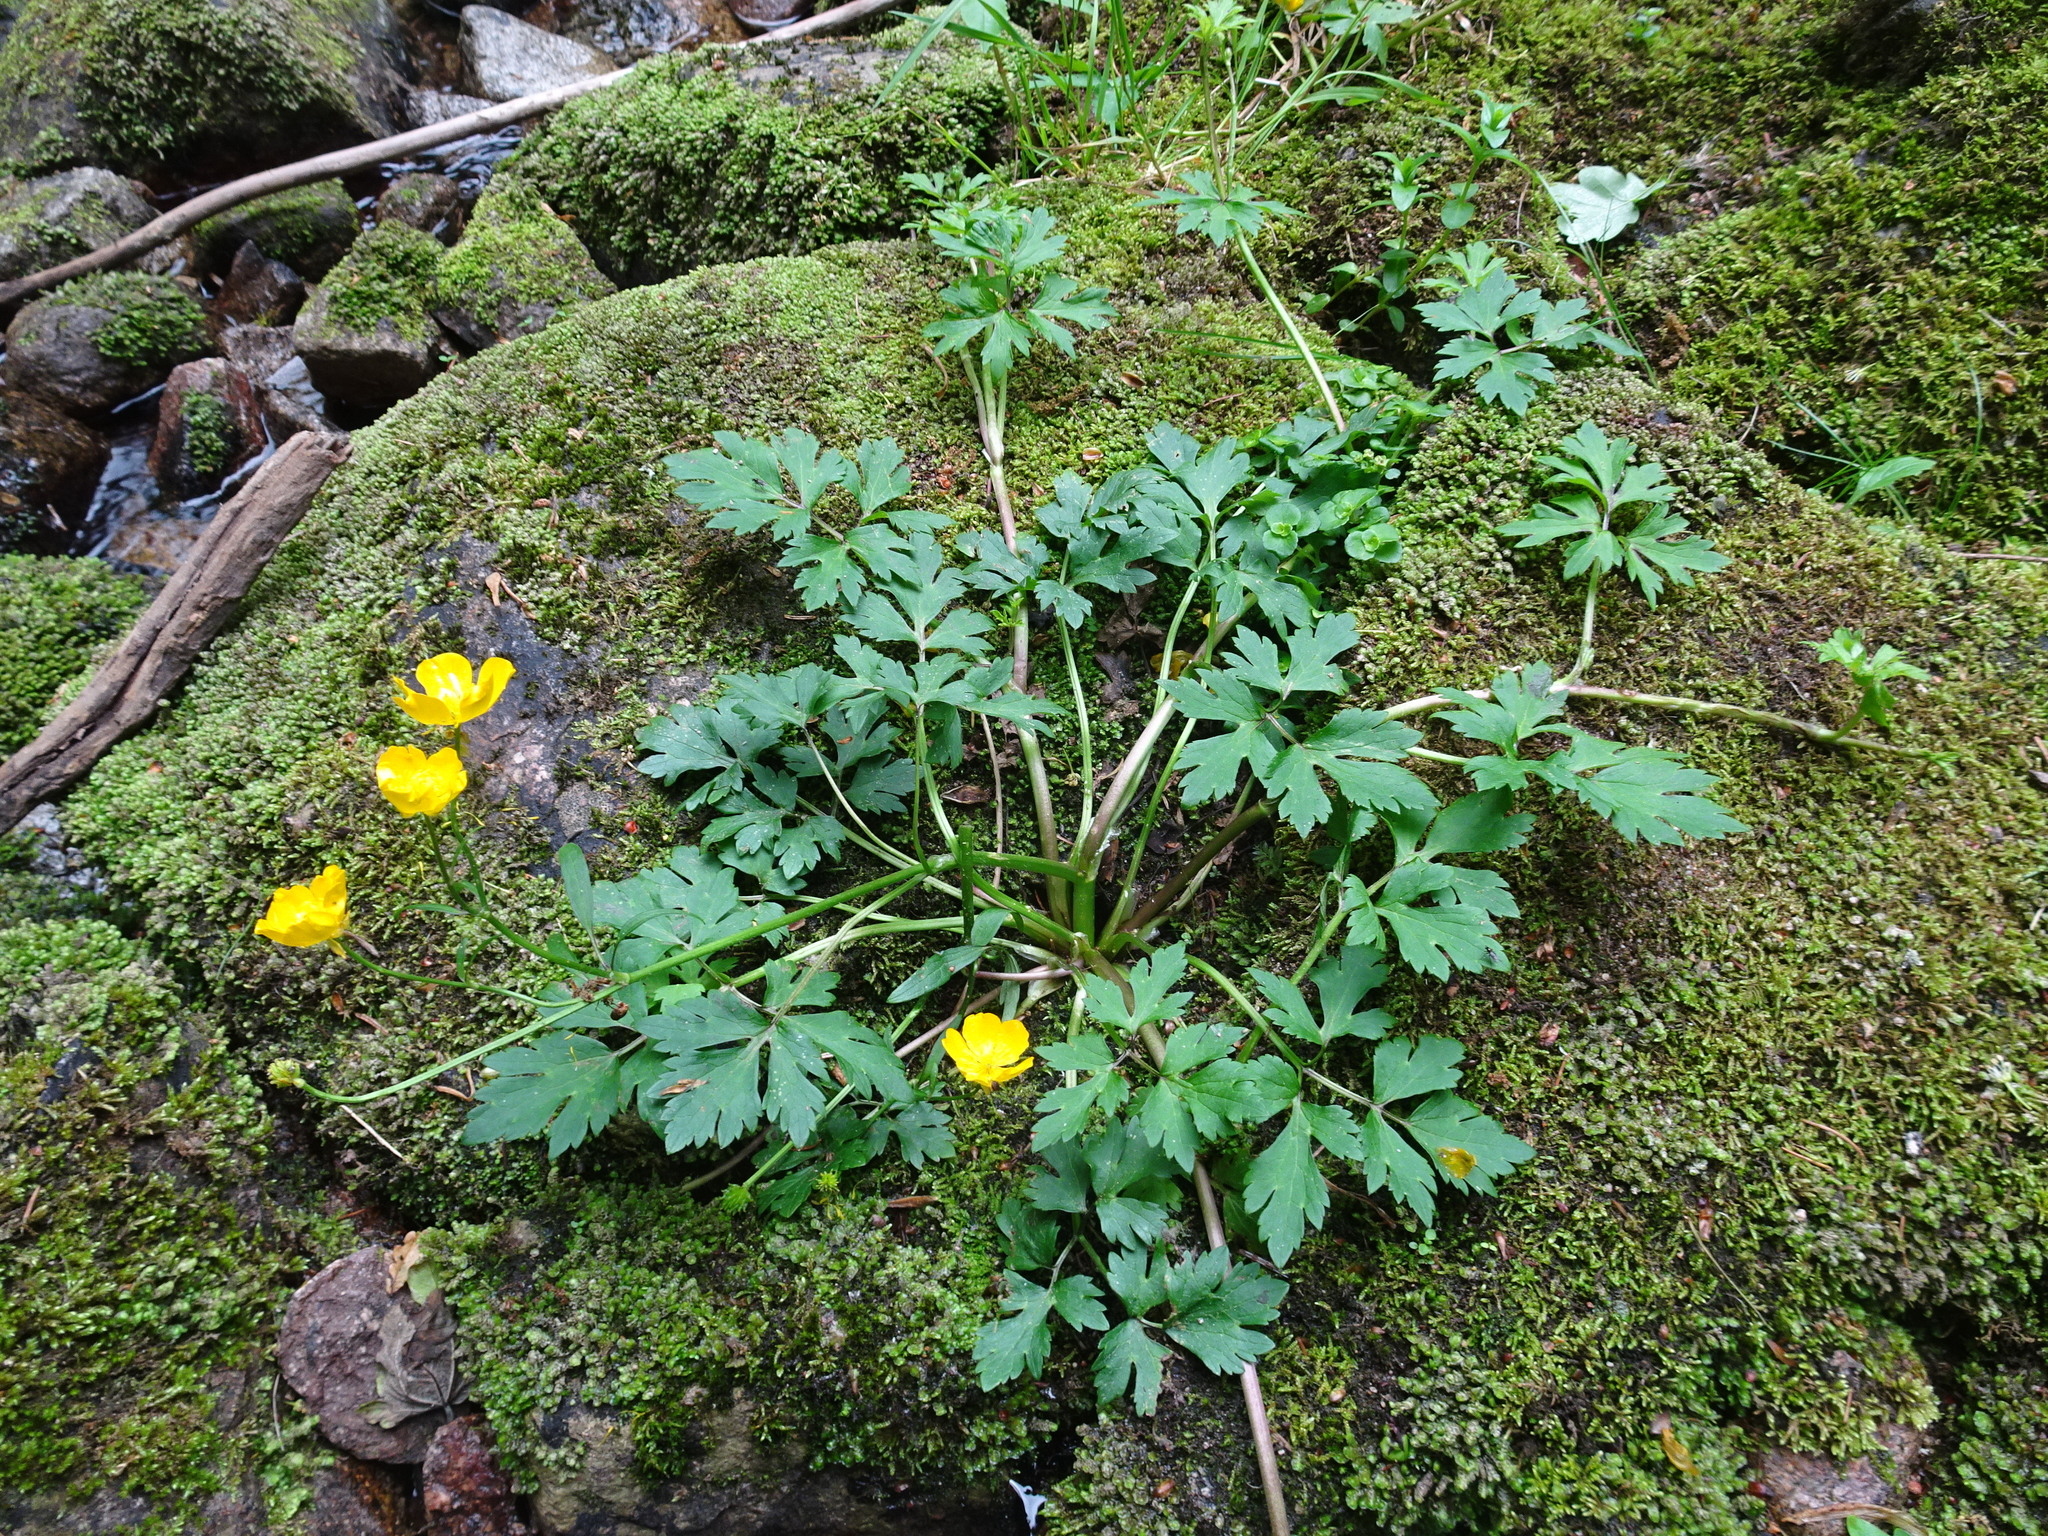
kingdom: Plantae
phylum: Tracheophyta
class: Magnoliopsida
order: Ranunculales
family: Ranunculaceae
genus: Ranunculus
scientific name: Ranunculus repens
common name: Creeping buttercup
